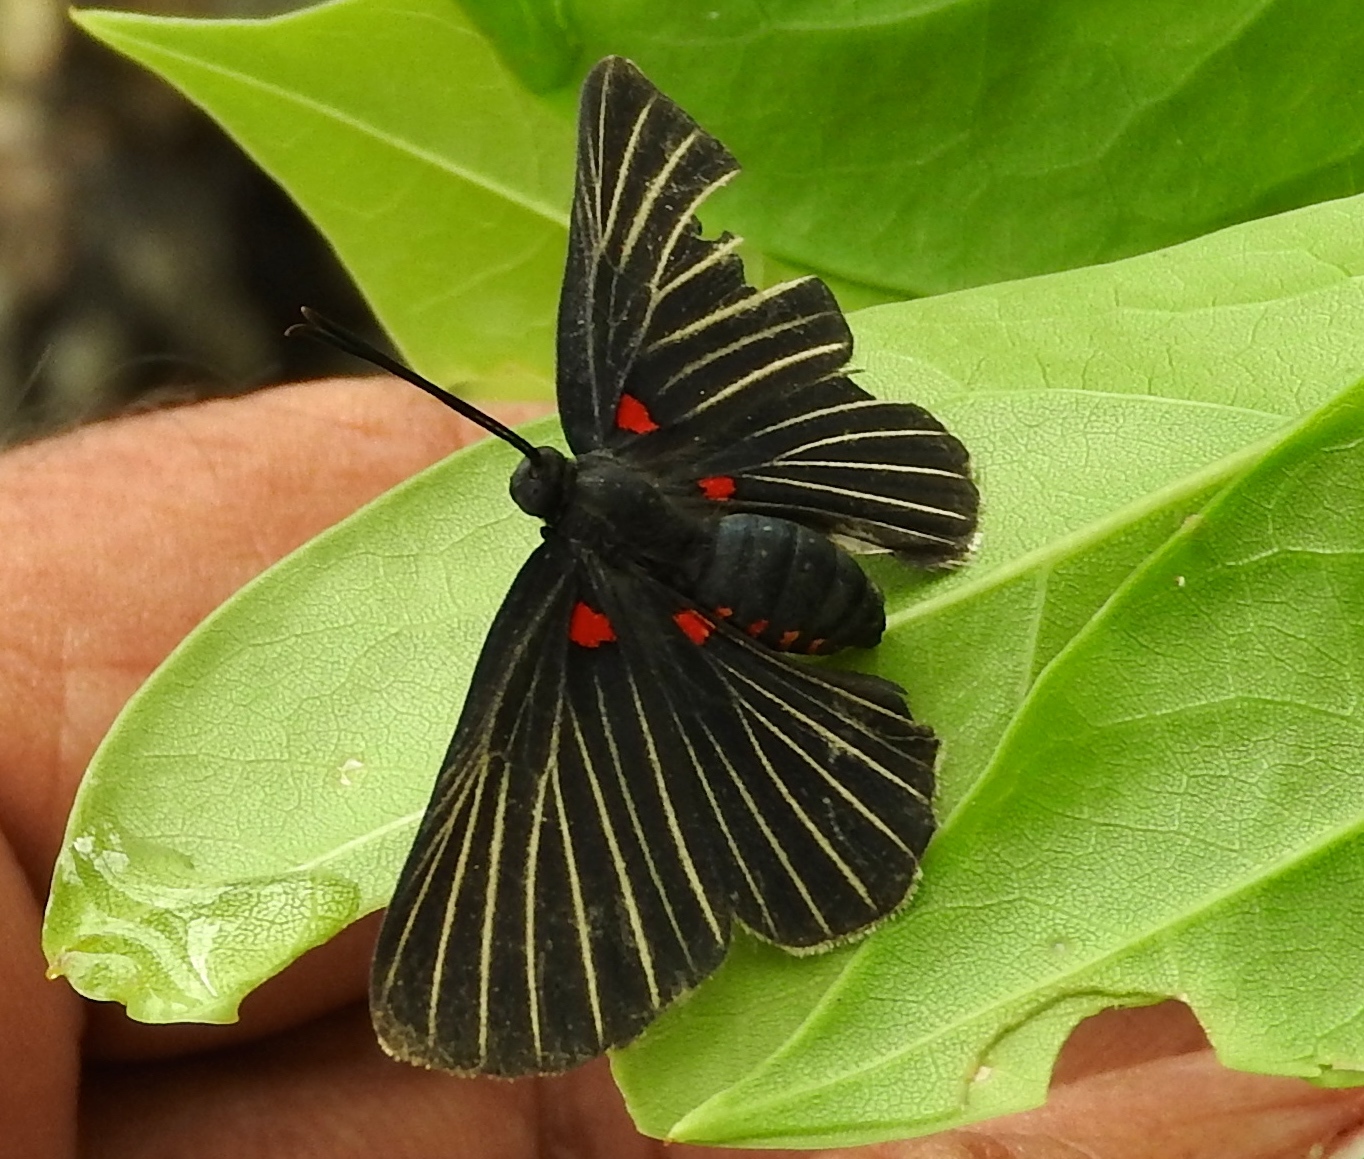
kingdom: Animalia
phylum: Arthropoda
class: Insecta
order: Lepidoptera
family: Lycaenidae
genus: Melanis
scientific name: Melanis
